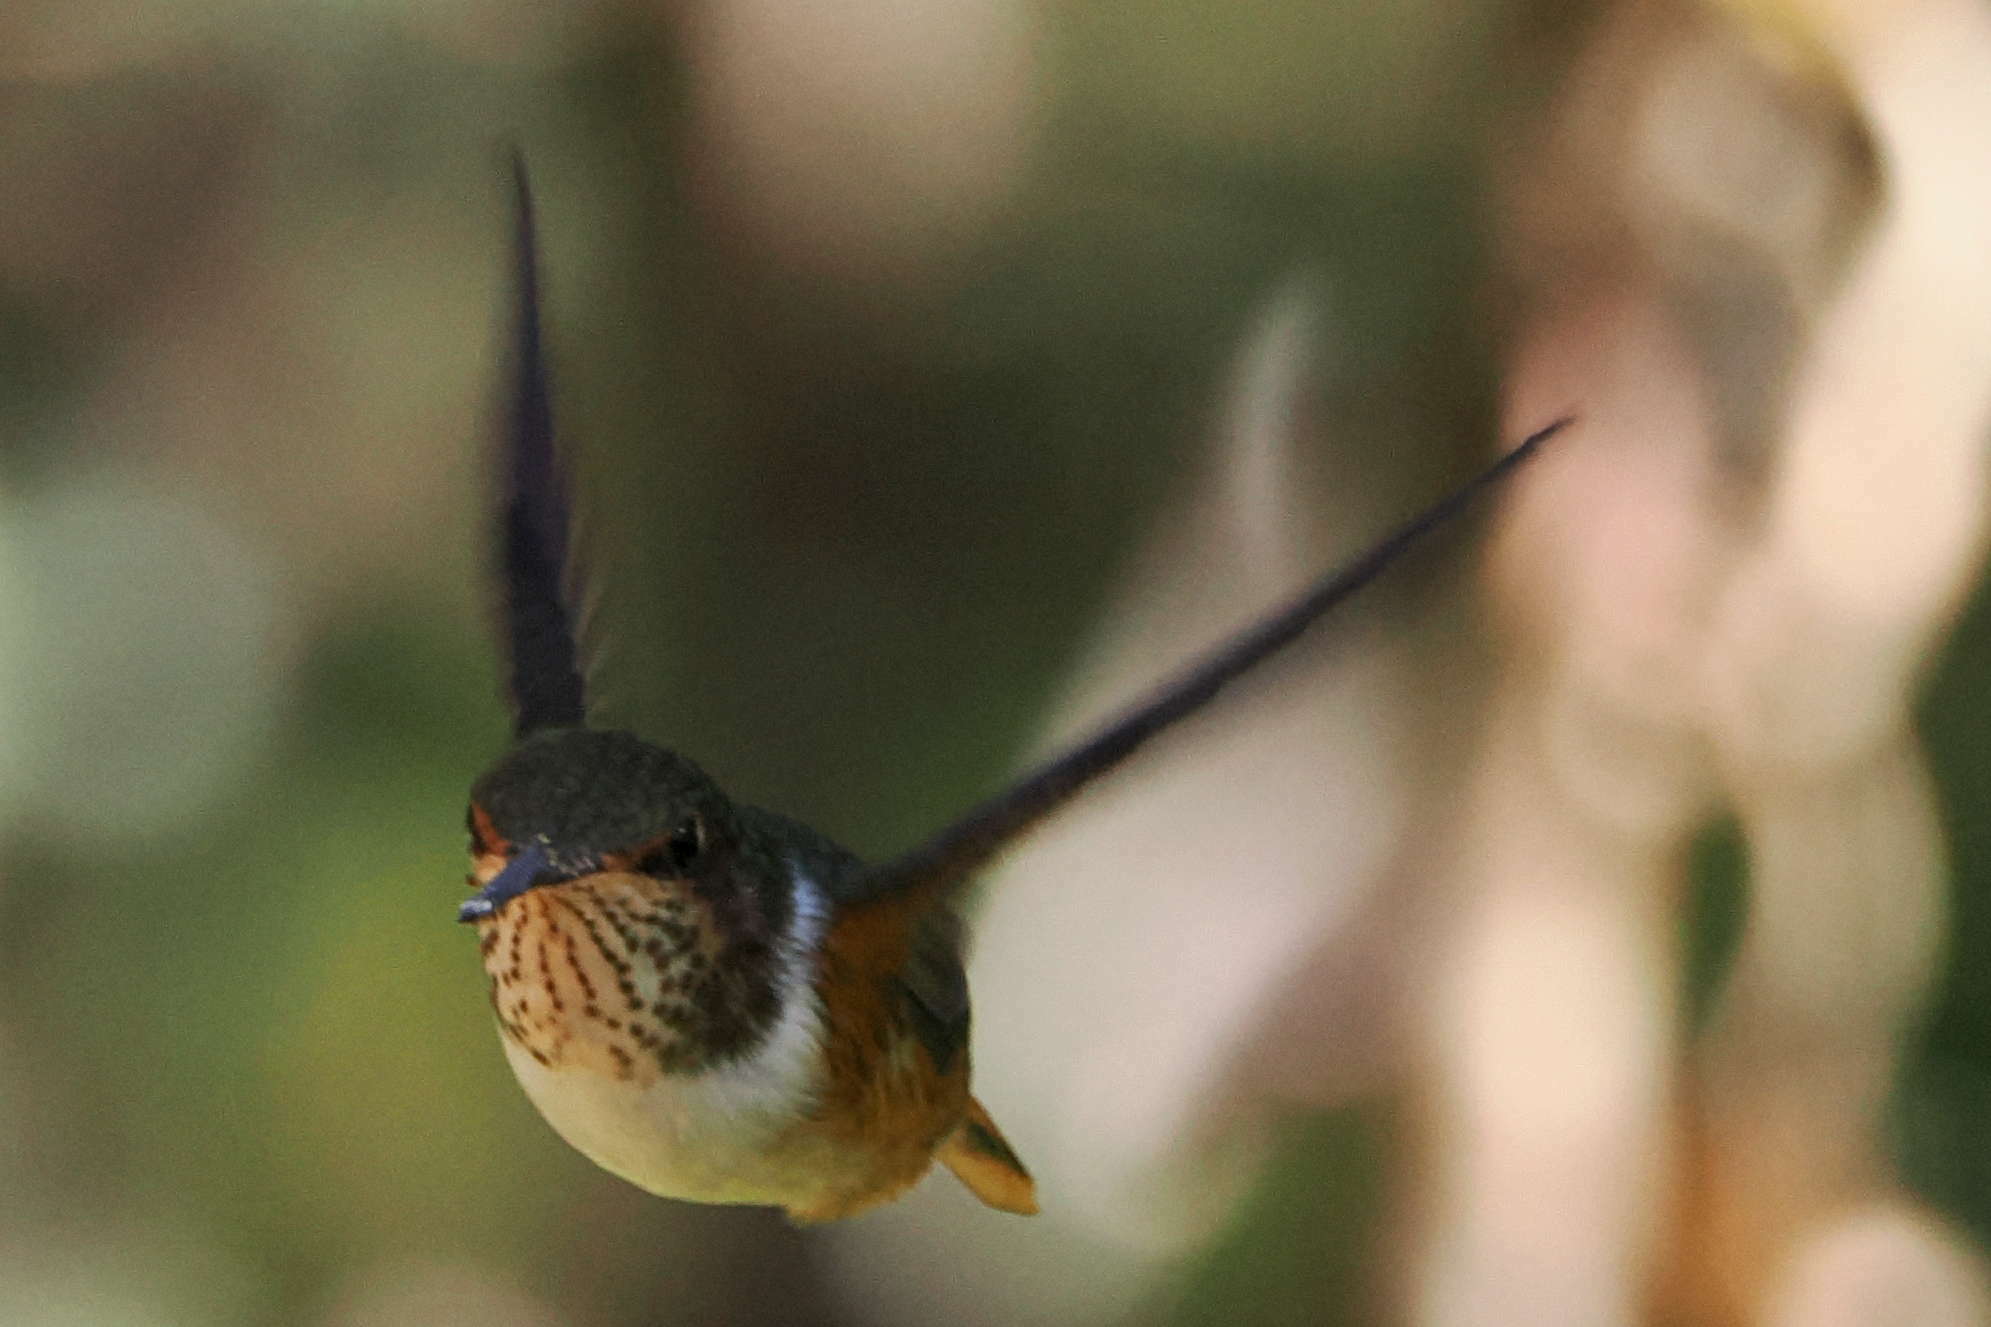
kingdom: Animalia
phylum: Chordata
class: Aves
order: Apodiformes
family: Trochilidae
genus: Selasphorus
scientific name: Selasphorus scintilla
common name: Scintillant hummingbird
